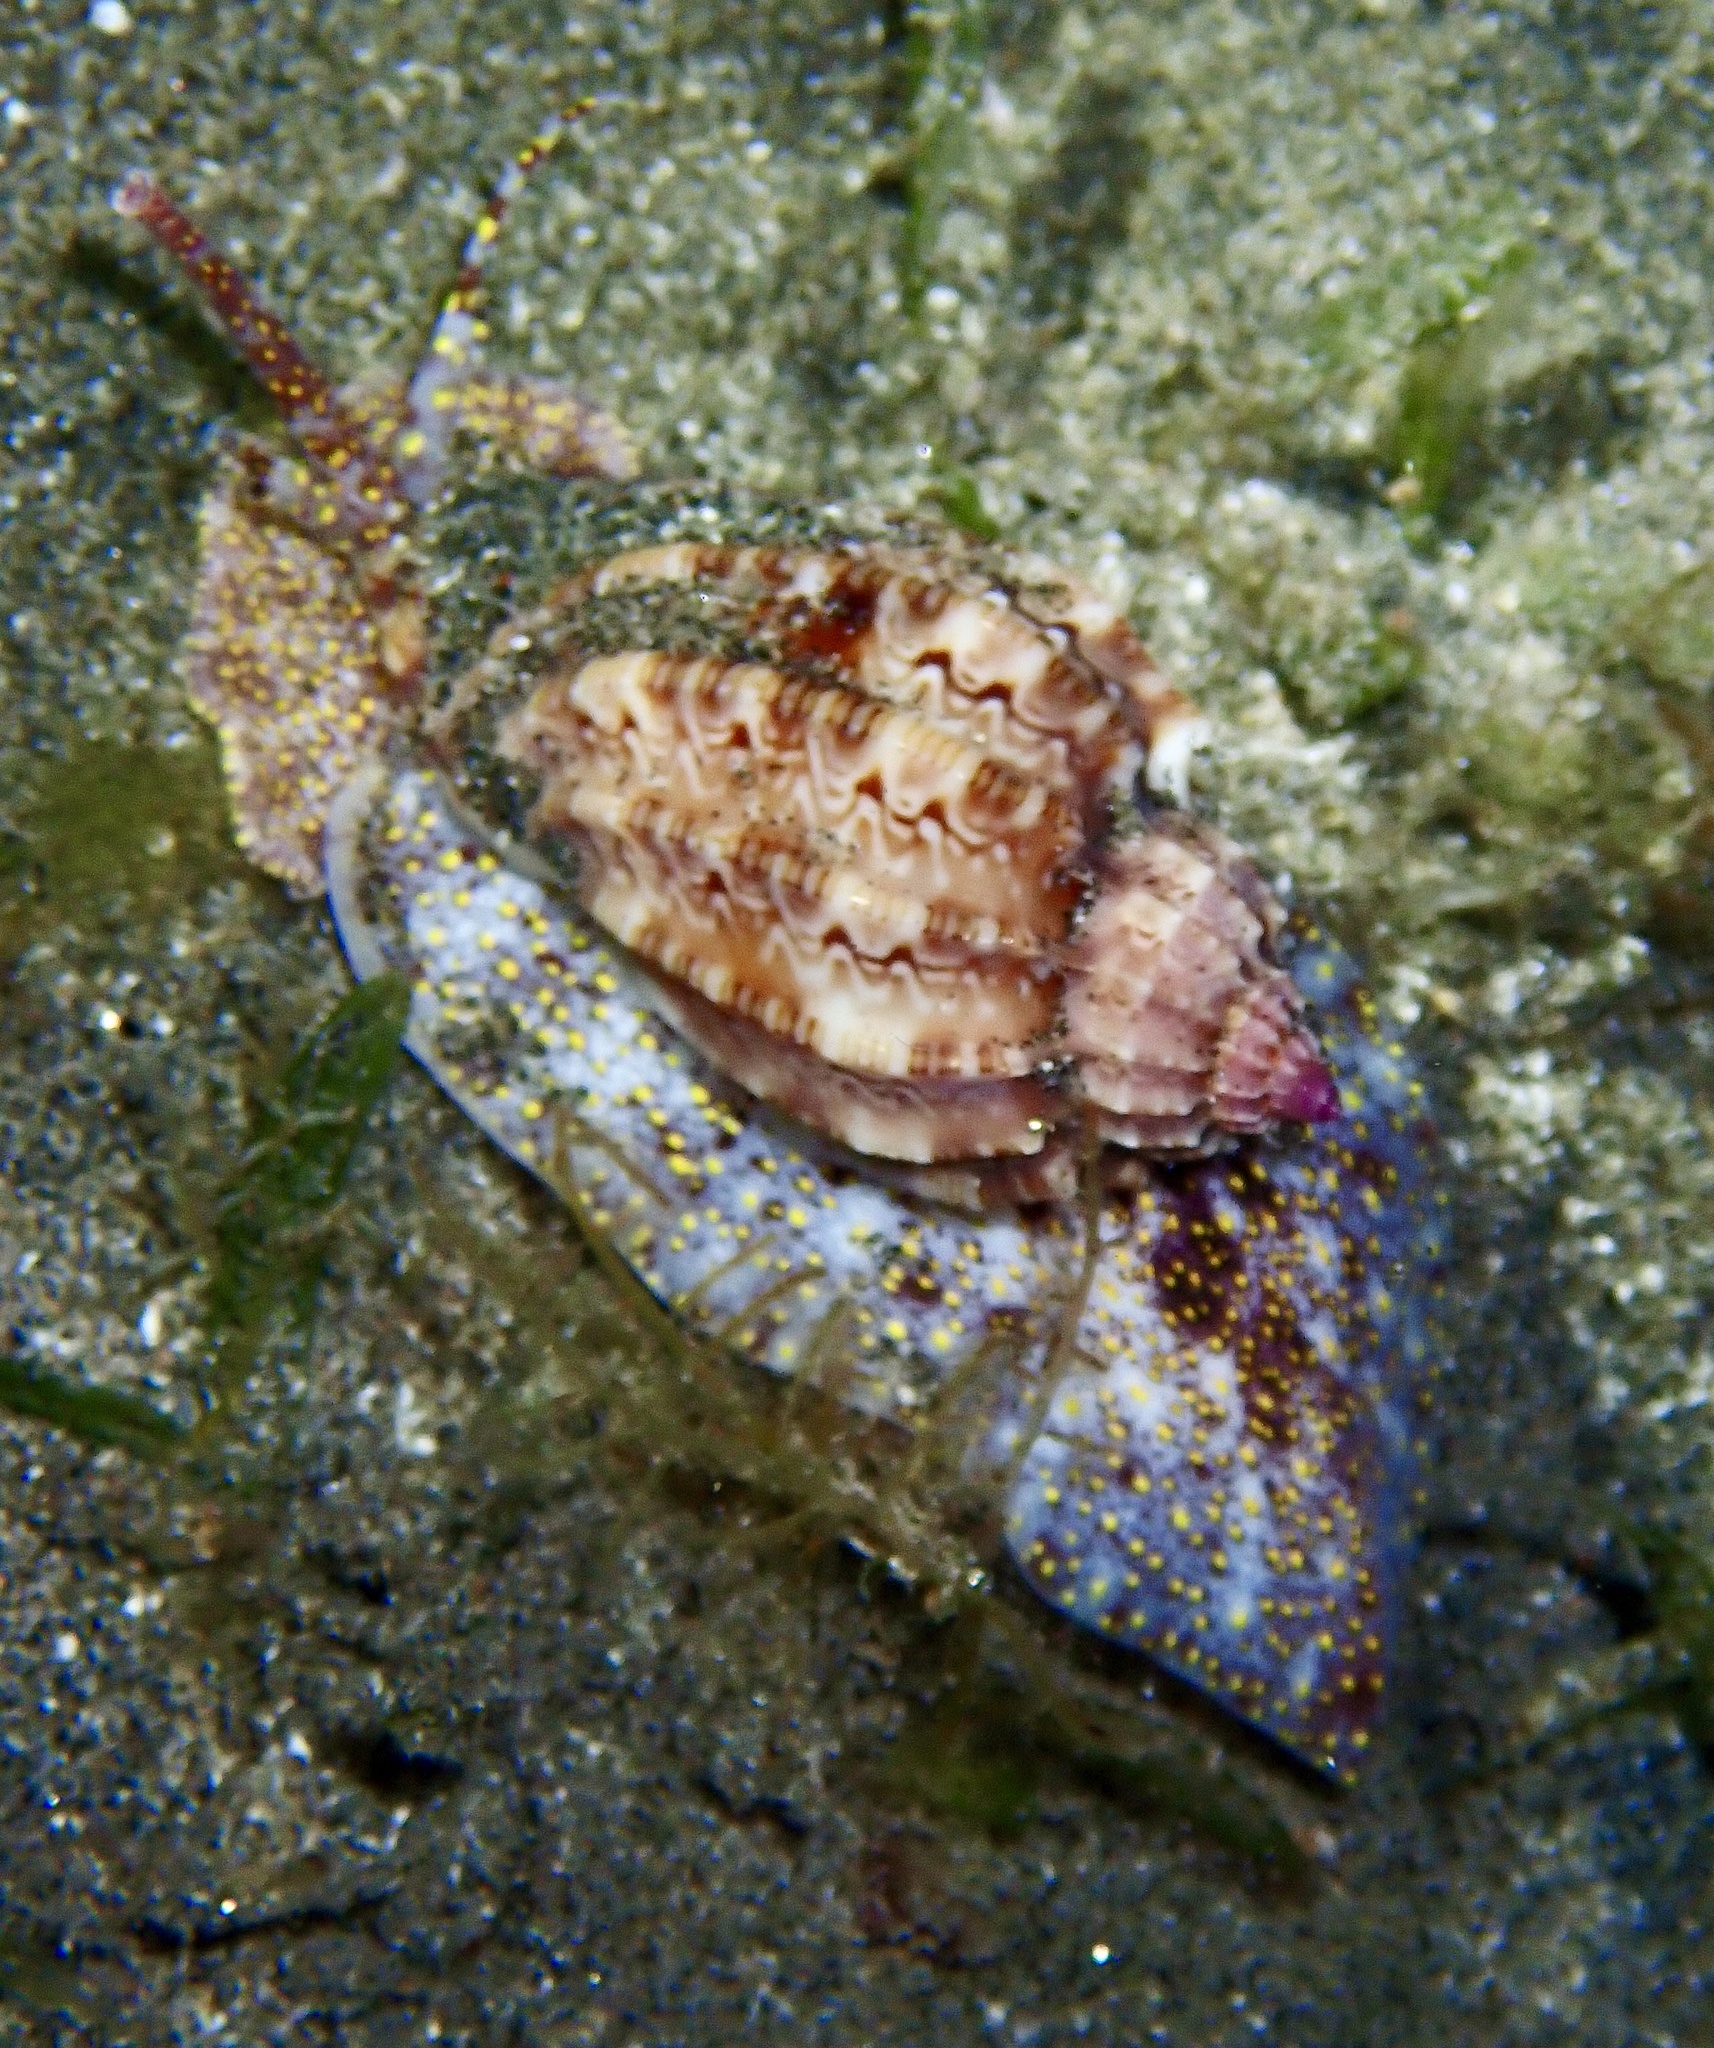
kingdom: Animalia
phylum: Mollusca
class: Gastropoda
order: Neogastropoda
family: Harpidae
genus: Harpa
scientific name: Harpa amouretta
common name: Lesser harp
